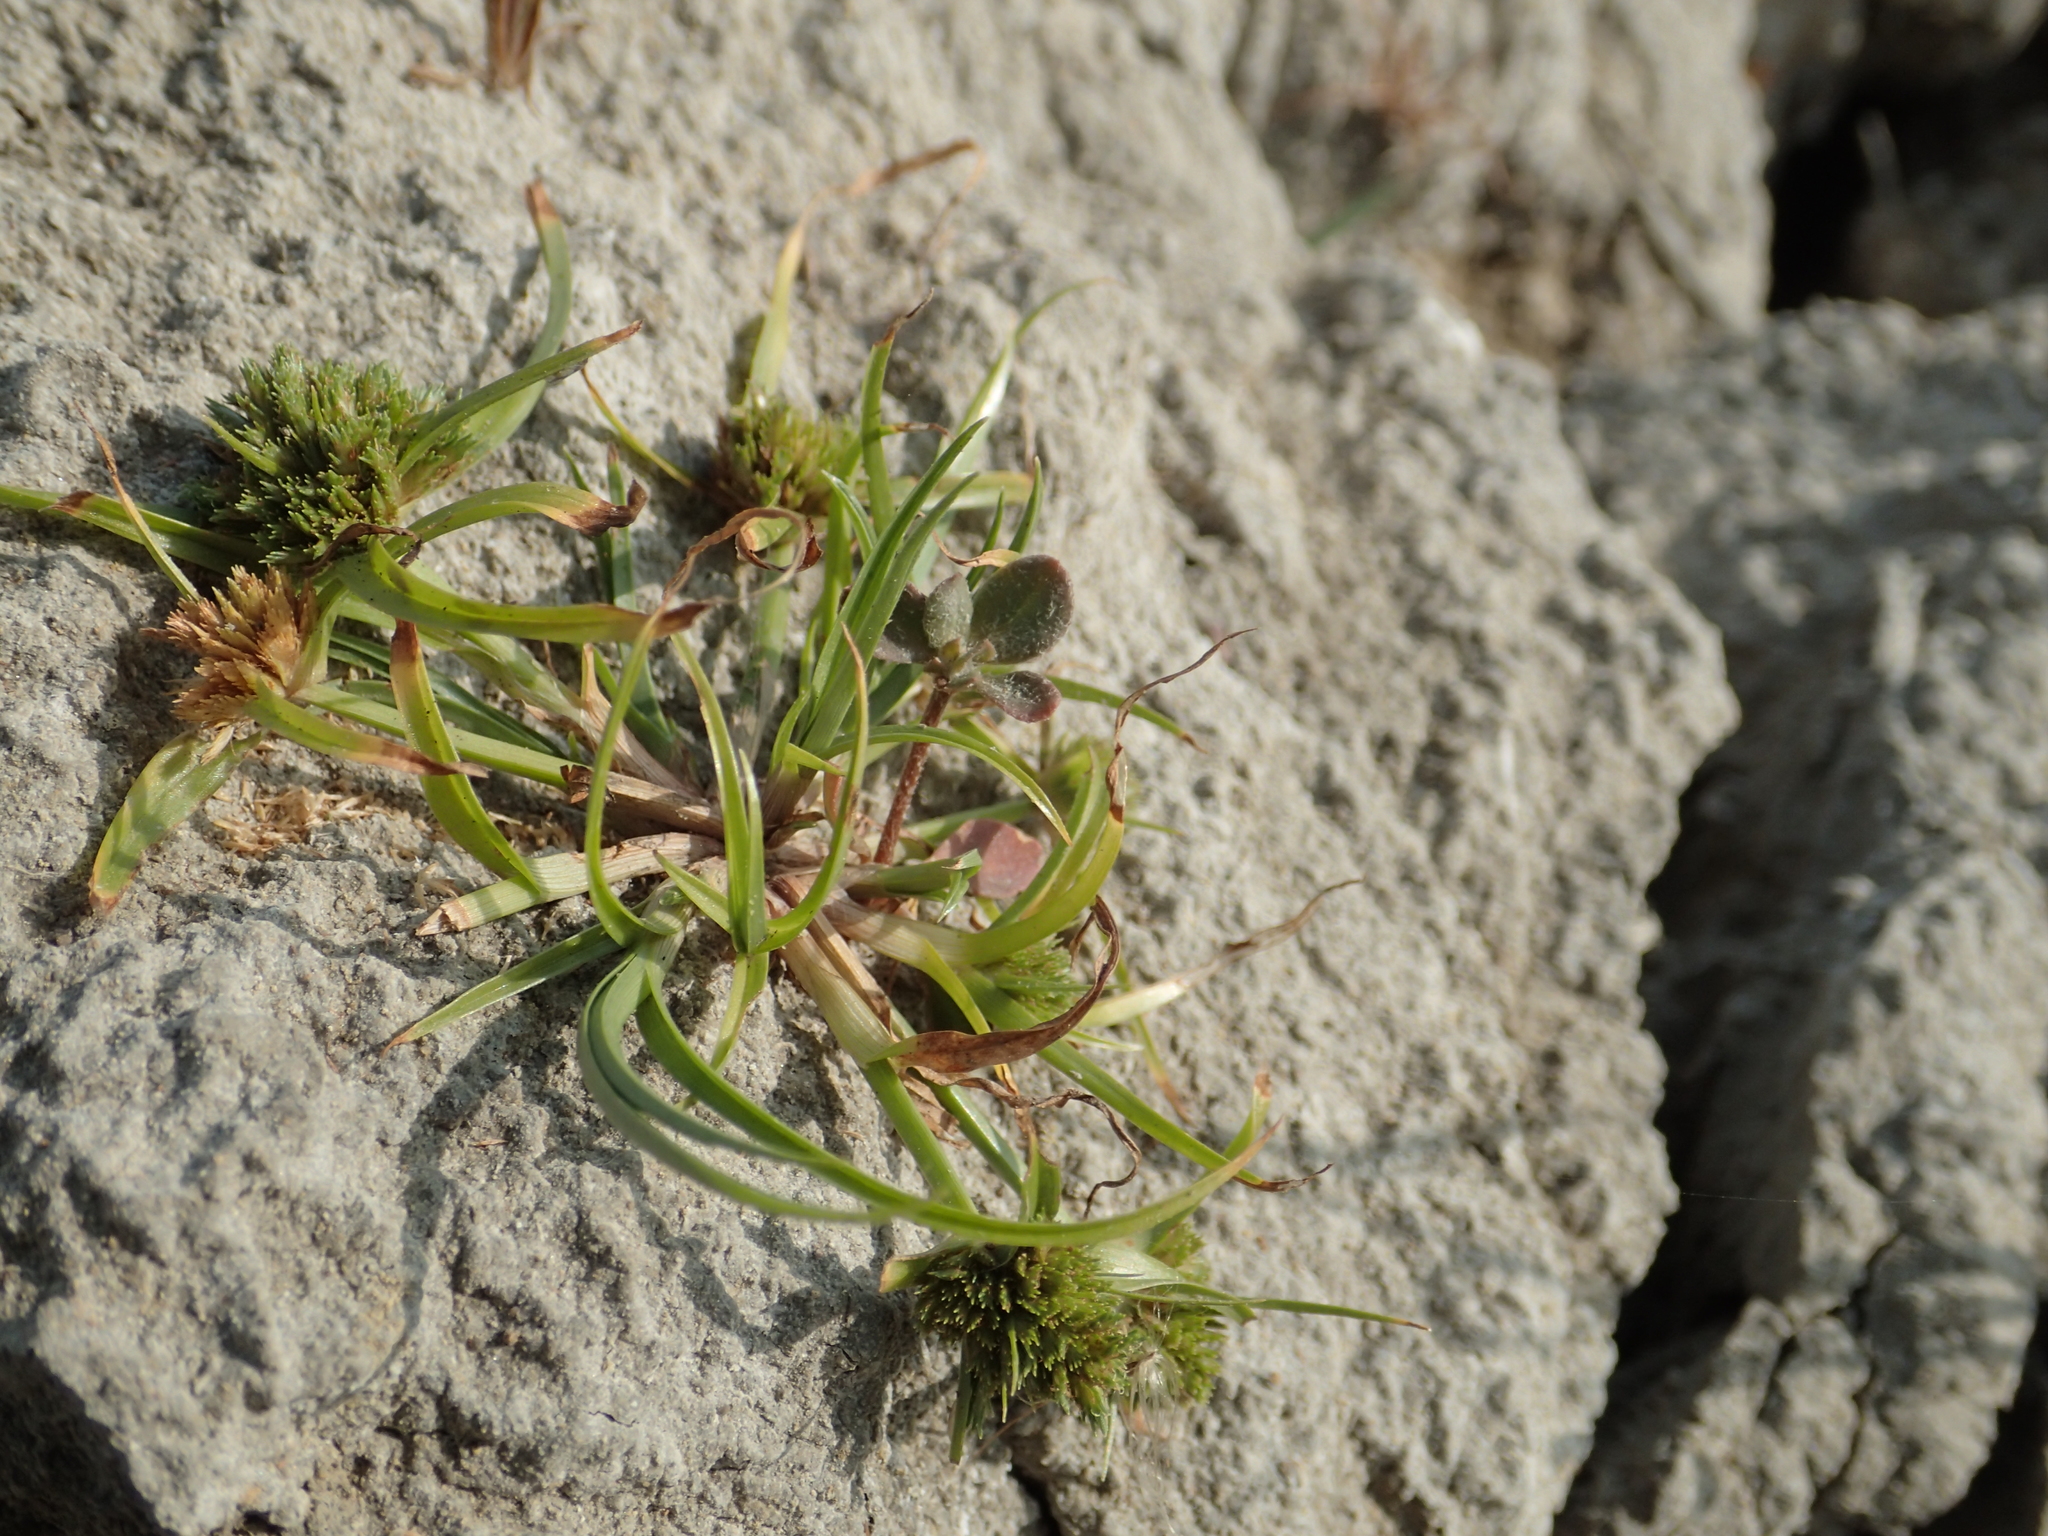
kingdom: Plantae
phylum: Tracheophyta
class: Liliopsida
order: Poales
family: Cyperaceae
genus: Cyperus
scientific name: Cyperus michelianus
